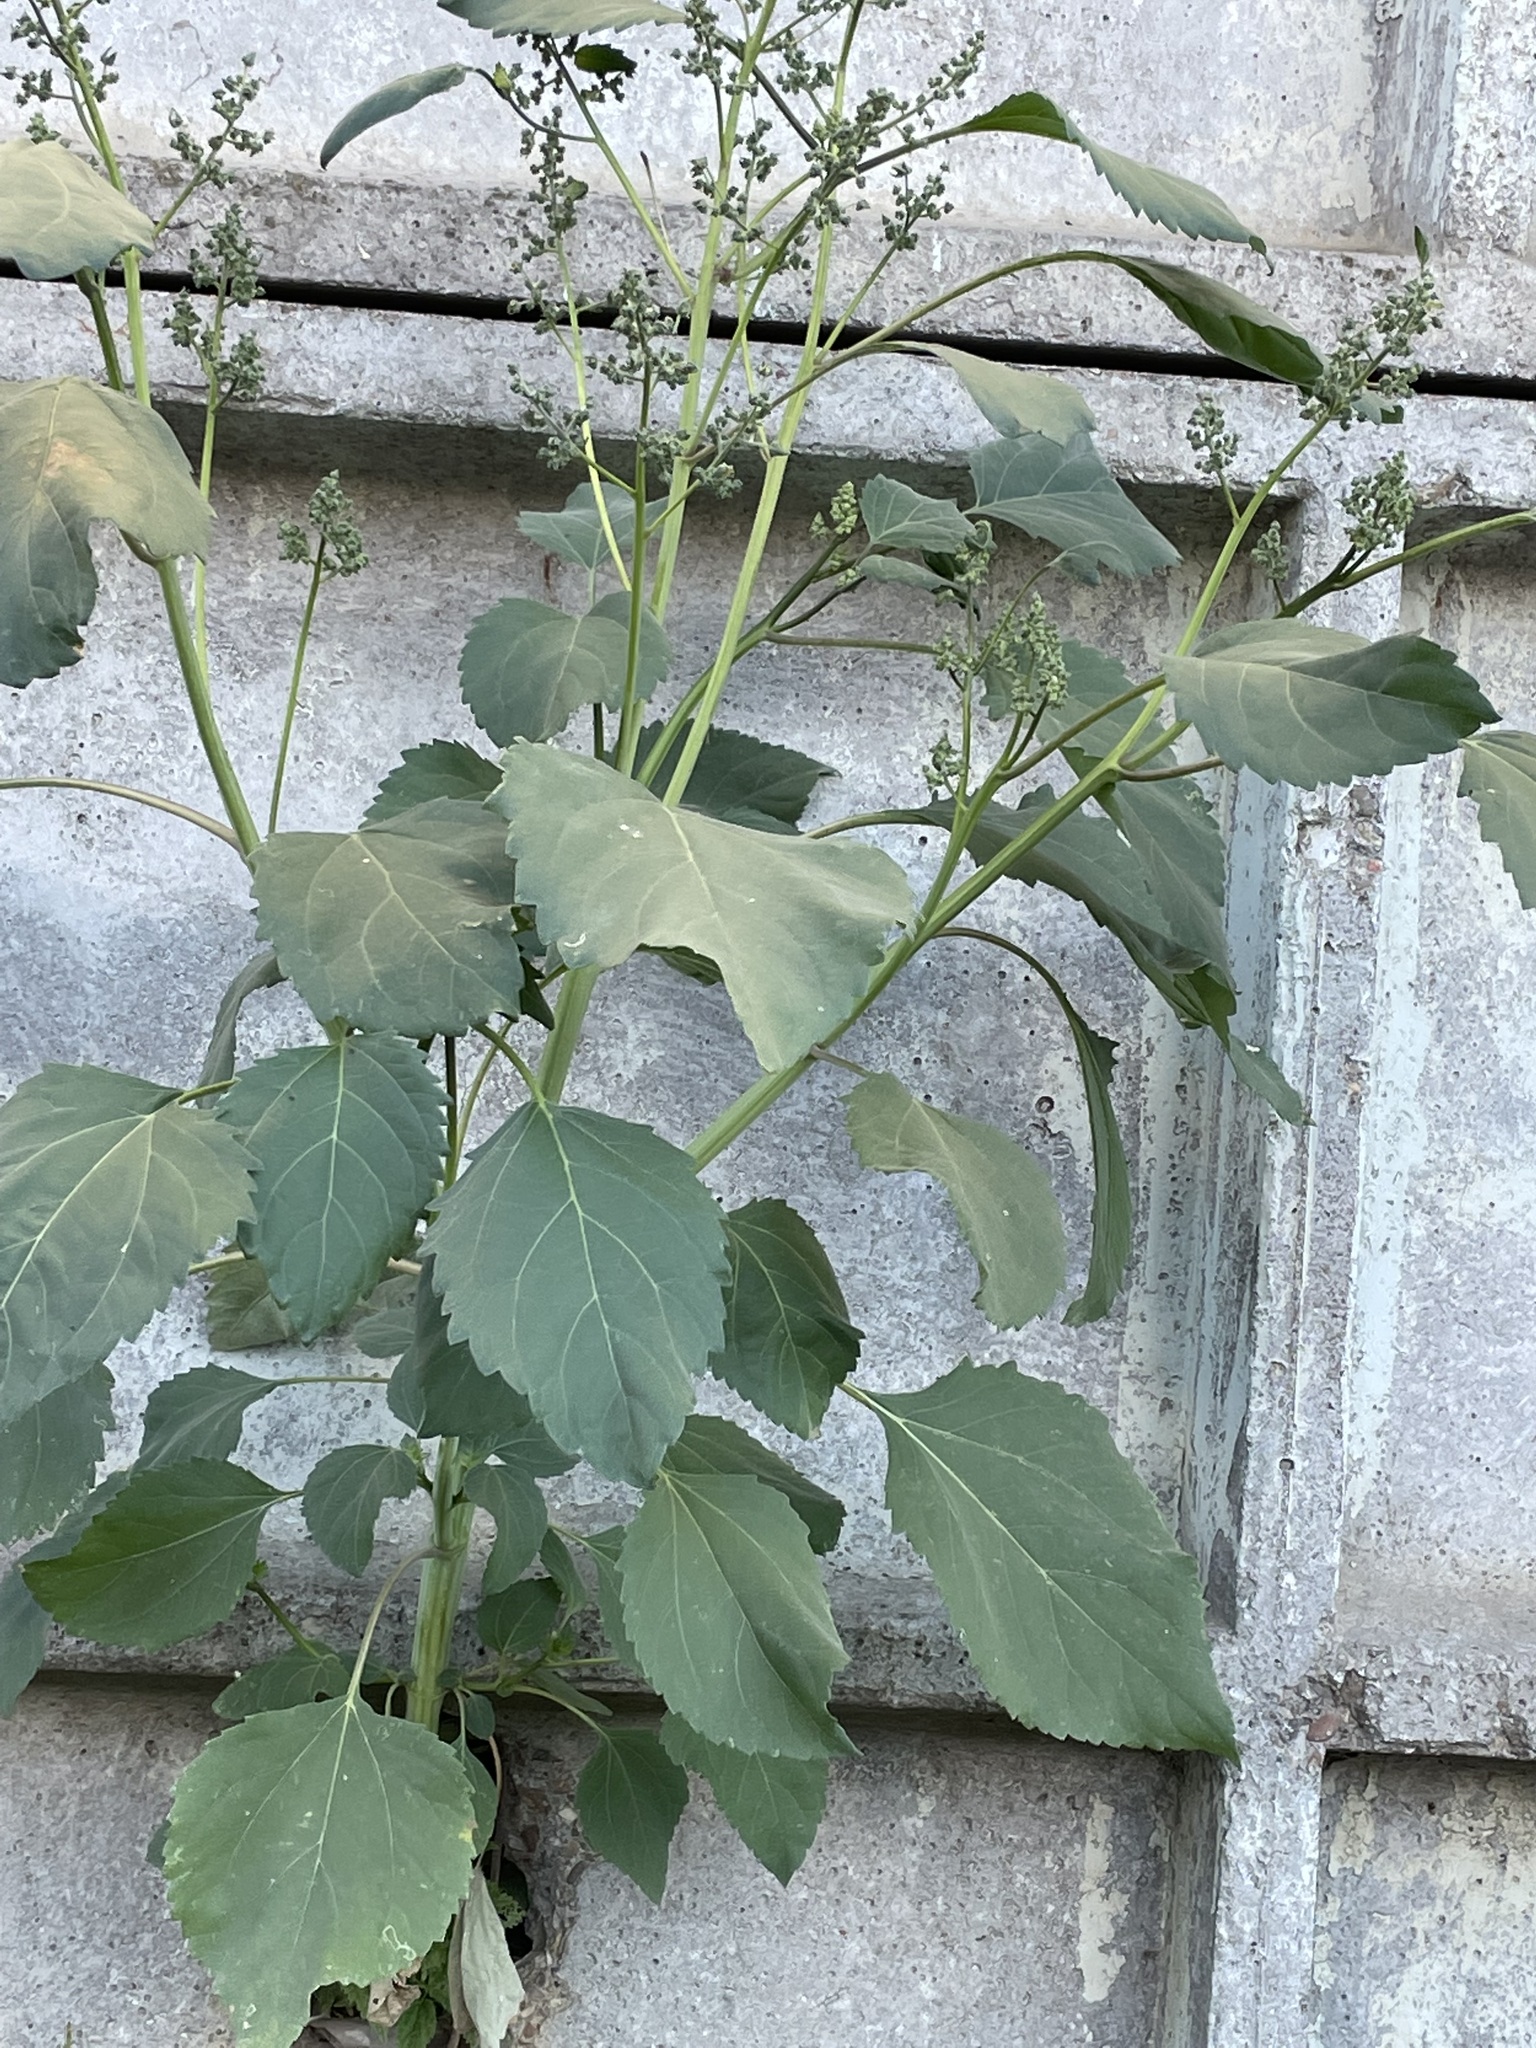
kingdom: Plantae
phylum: Tracheophyta
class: Magnoliopsida
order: Asterales
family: Asteraceae
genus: Cyclachaena
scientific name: Cyclachaena xanthiifolia
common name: Giant sumpweed
